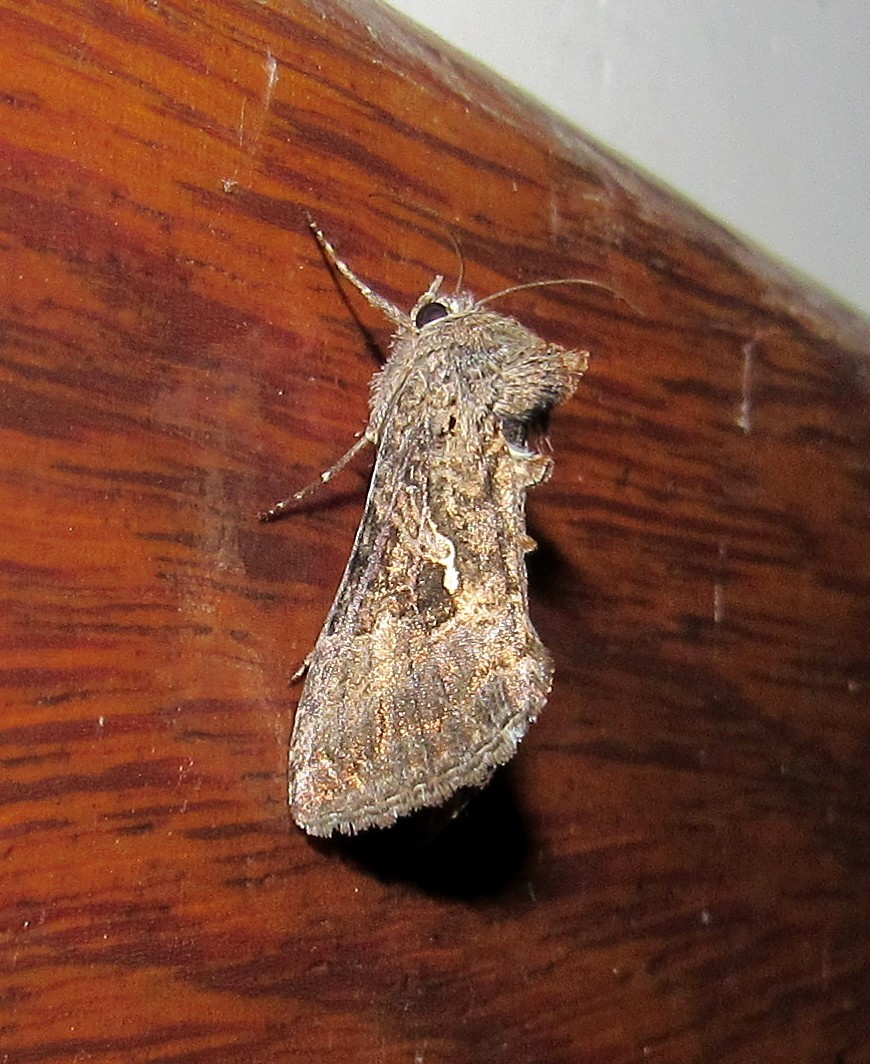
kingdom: Animalia
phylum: Arthropoda
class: Insecta
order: Lepidoptera
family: Noctuidae
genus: Rachiplusia
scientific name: Rachiplusia nu
